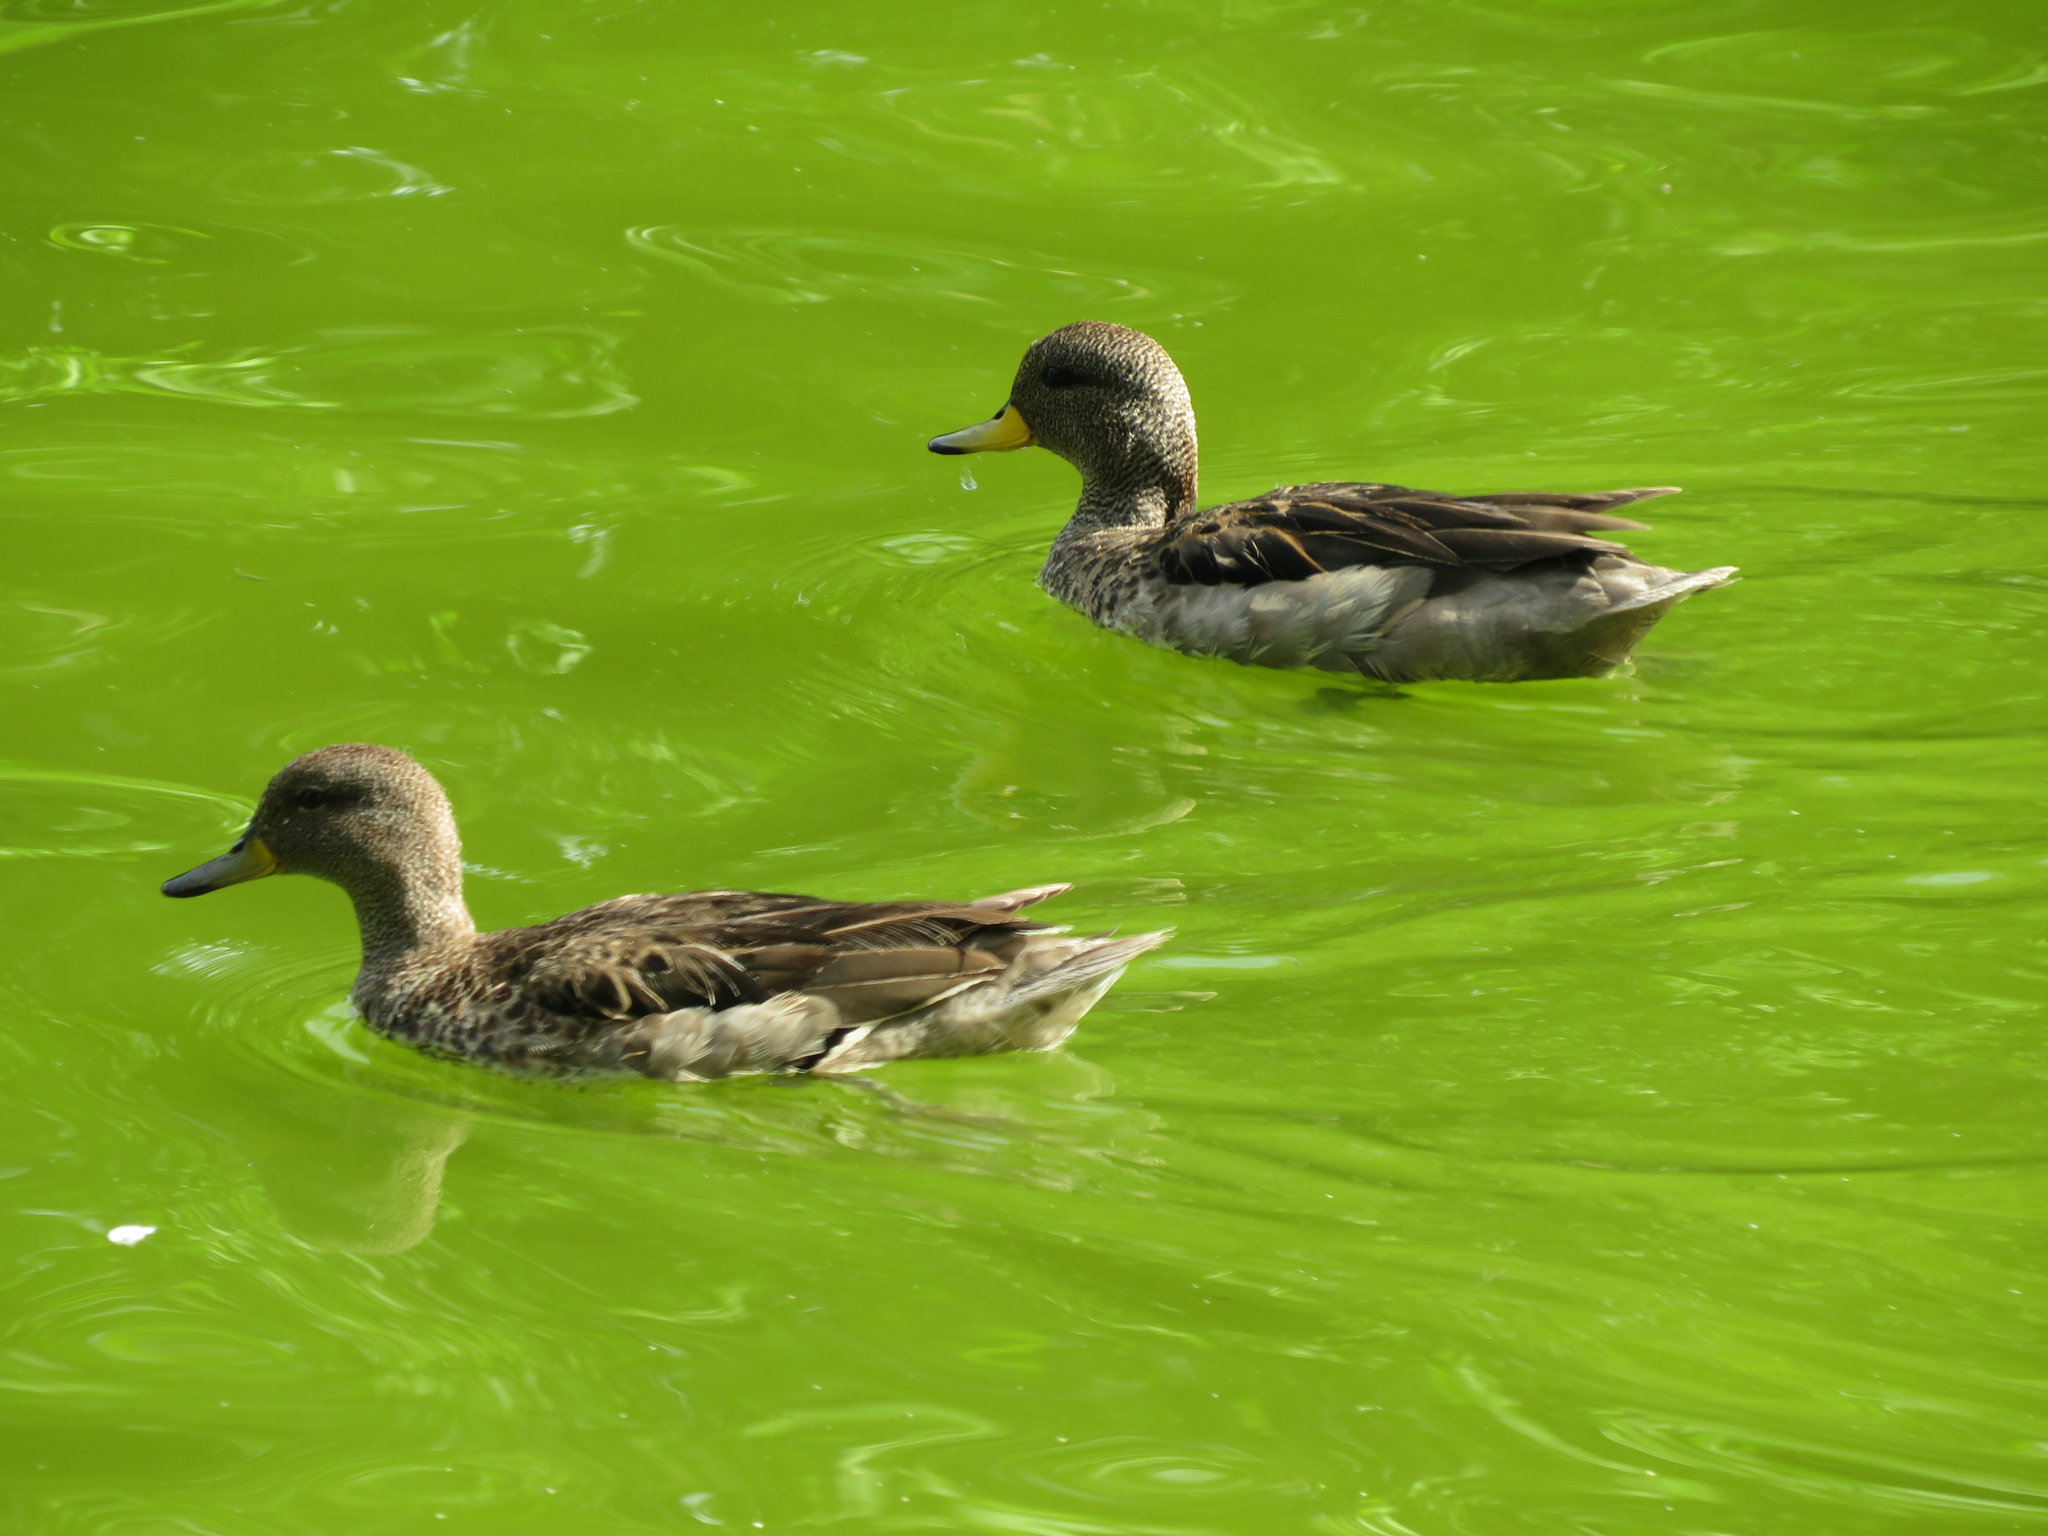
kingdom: Animalia
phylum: Chordata
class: Aves
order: Anseriformes
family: Anatidae
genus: Anas
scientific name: Anas flavirostris
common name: Yellow-billed teal
